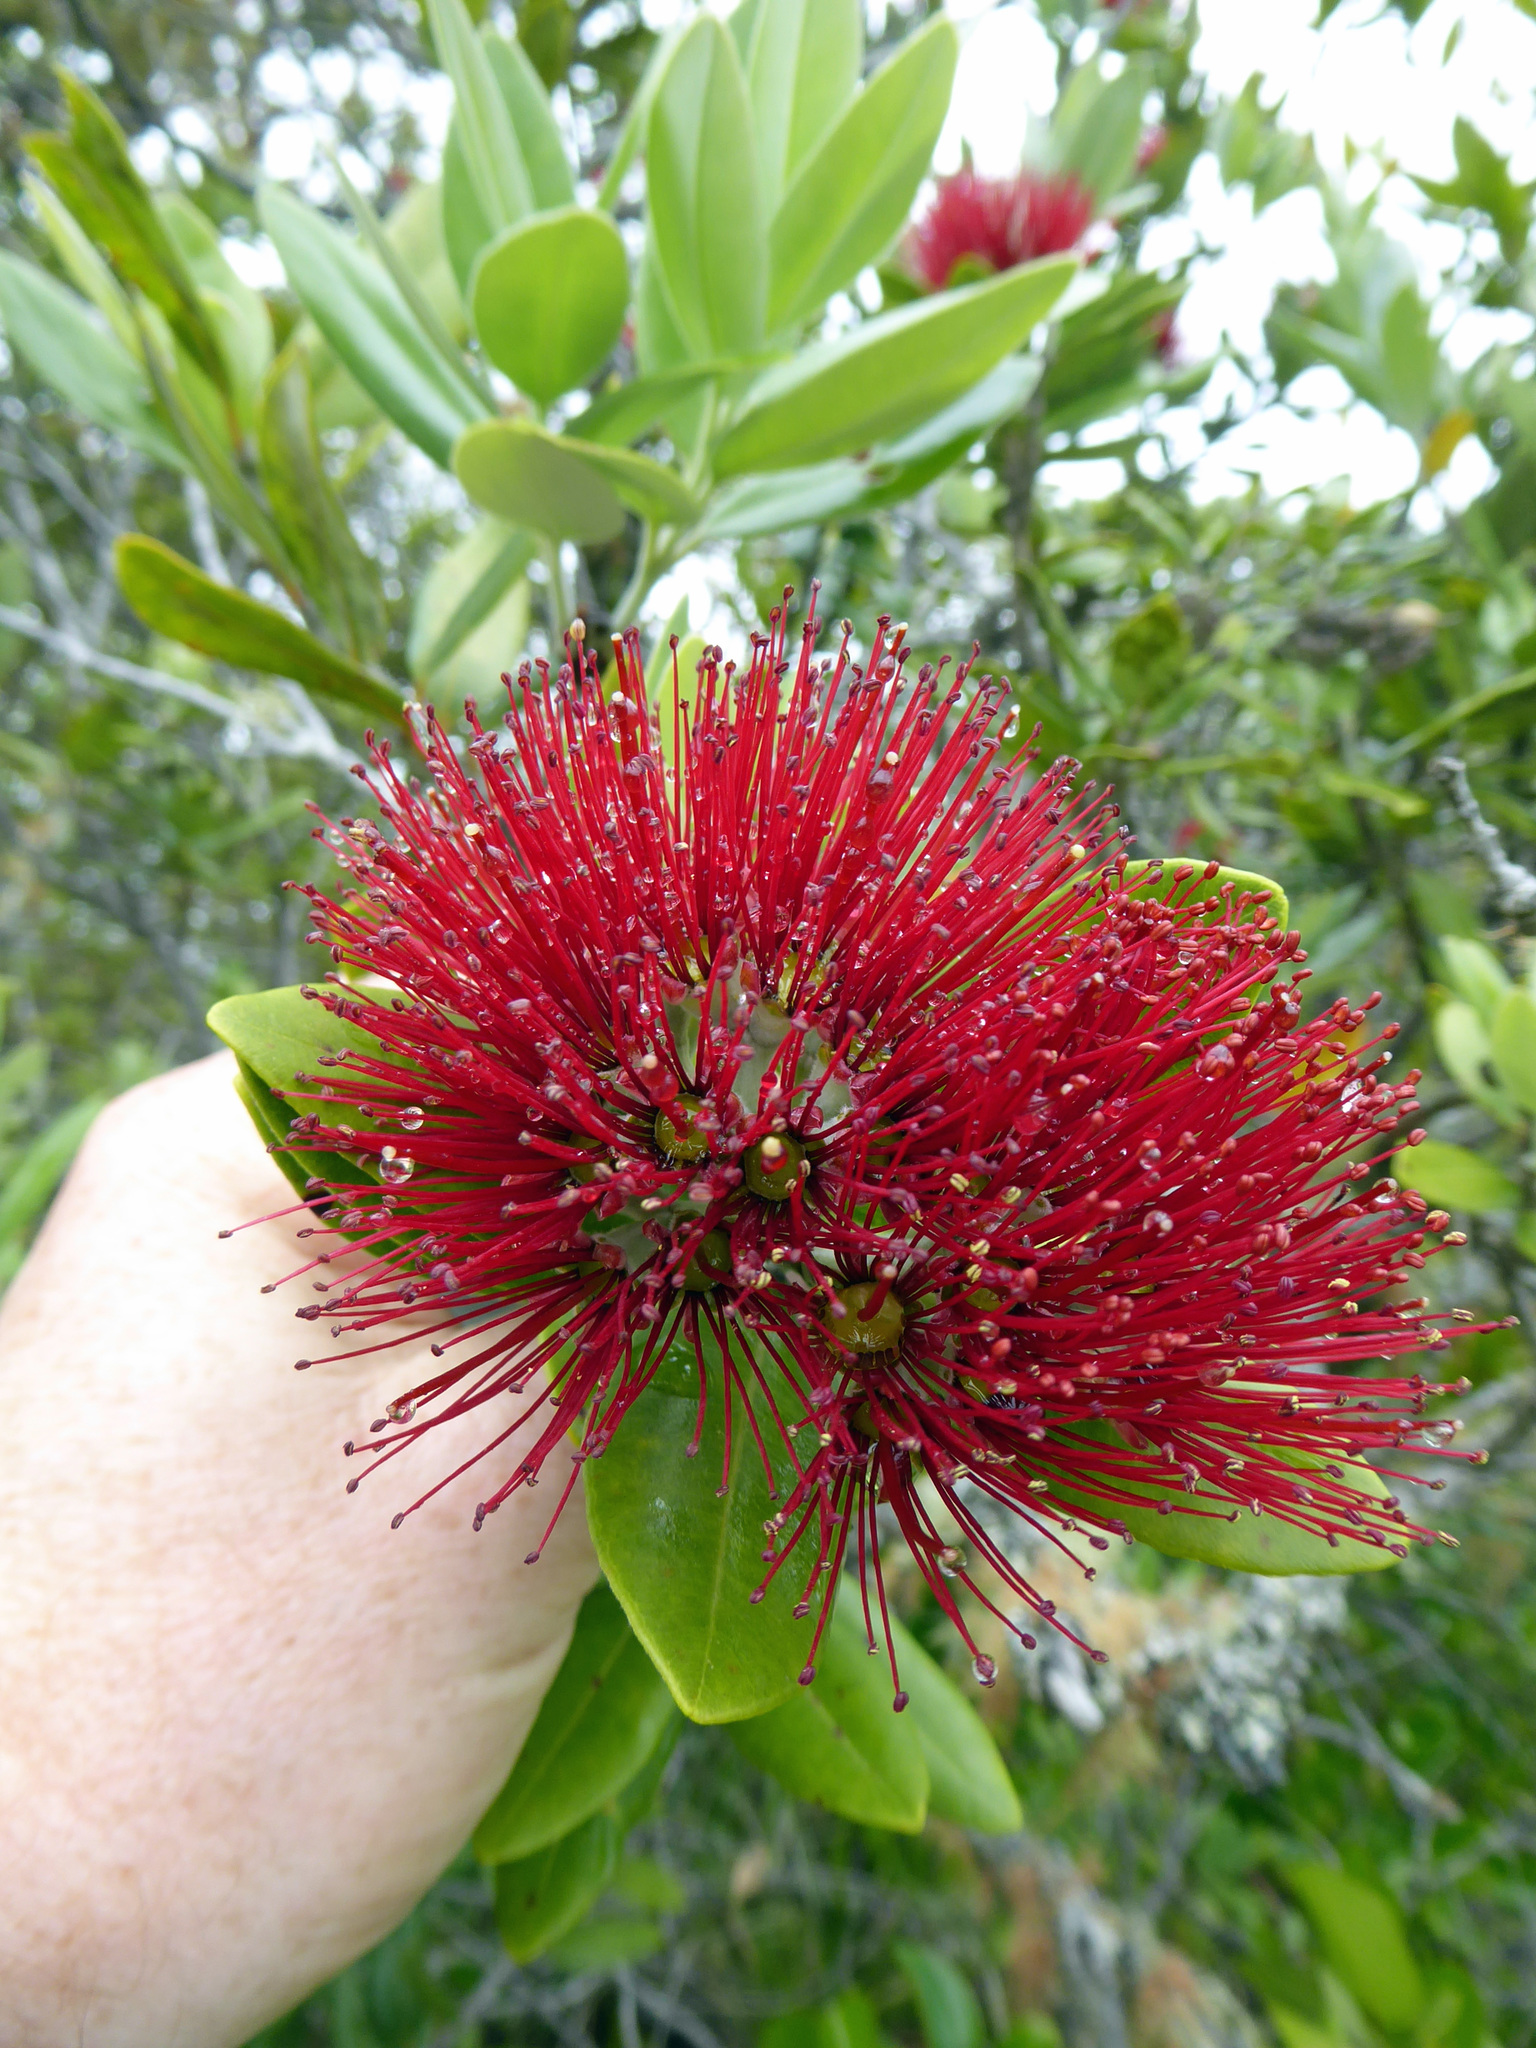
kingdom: Plantae
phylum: Tracheophyta
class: Magnoliopsida
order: Myrtales
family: Myrtaceae
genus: Metrosideros
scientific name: Metrosideros excelsa
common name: New zealand christmastree
